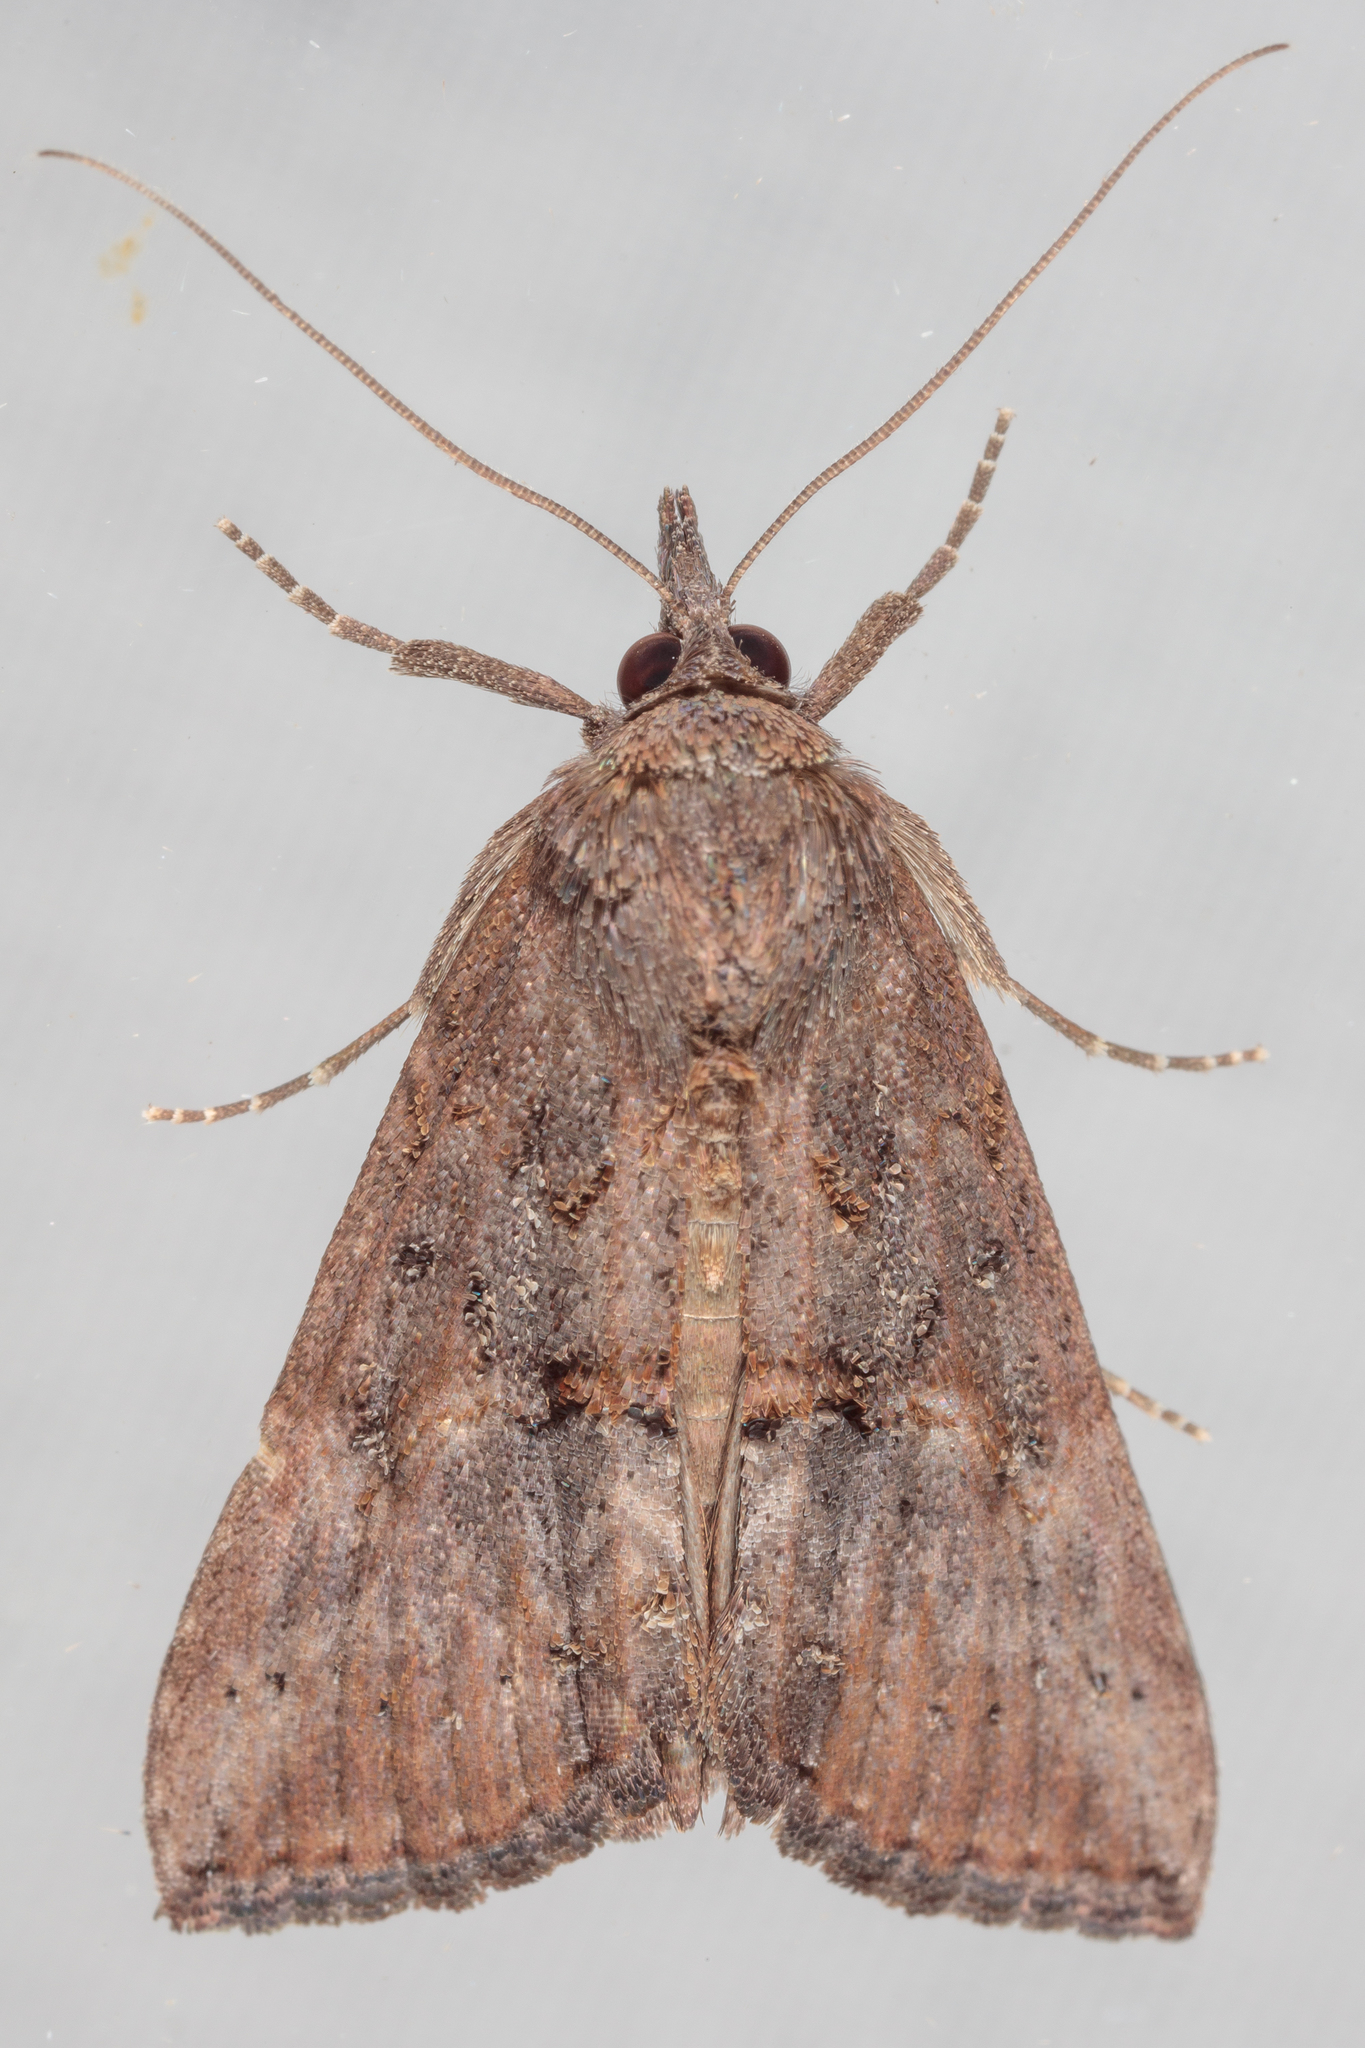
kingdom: Animalia
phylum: Arthropoda
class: Insecta
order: Lepidoptera
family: Erebidae
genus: Hypena
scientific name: Hypena scabra
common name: Green cloverworm
